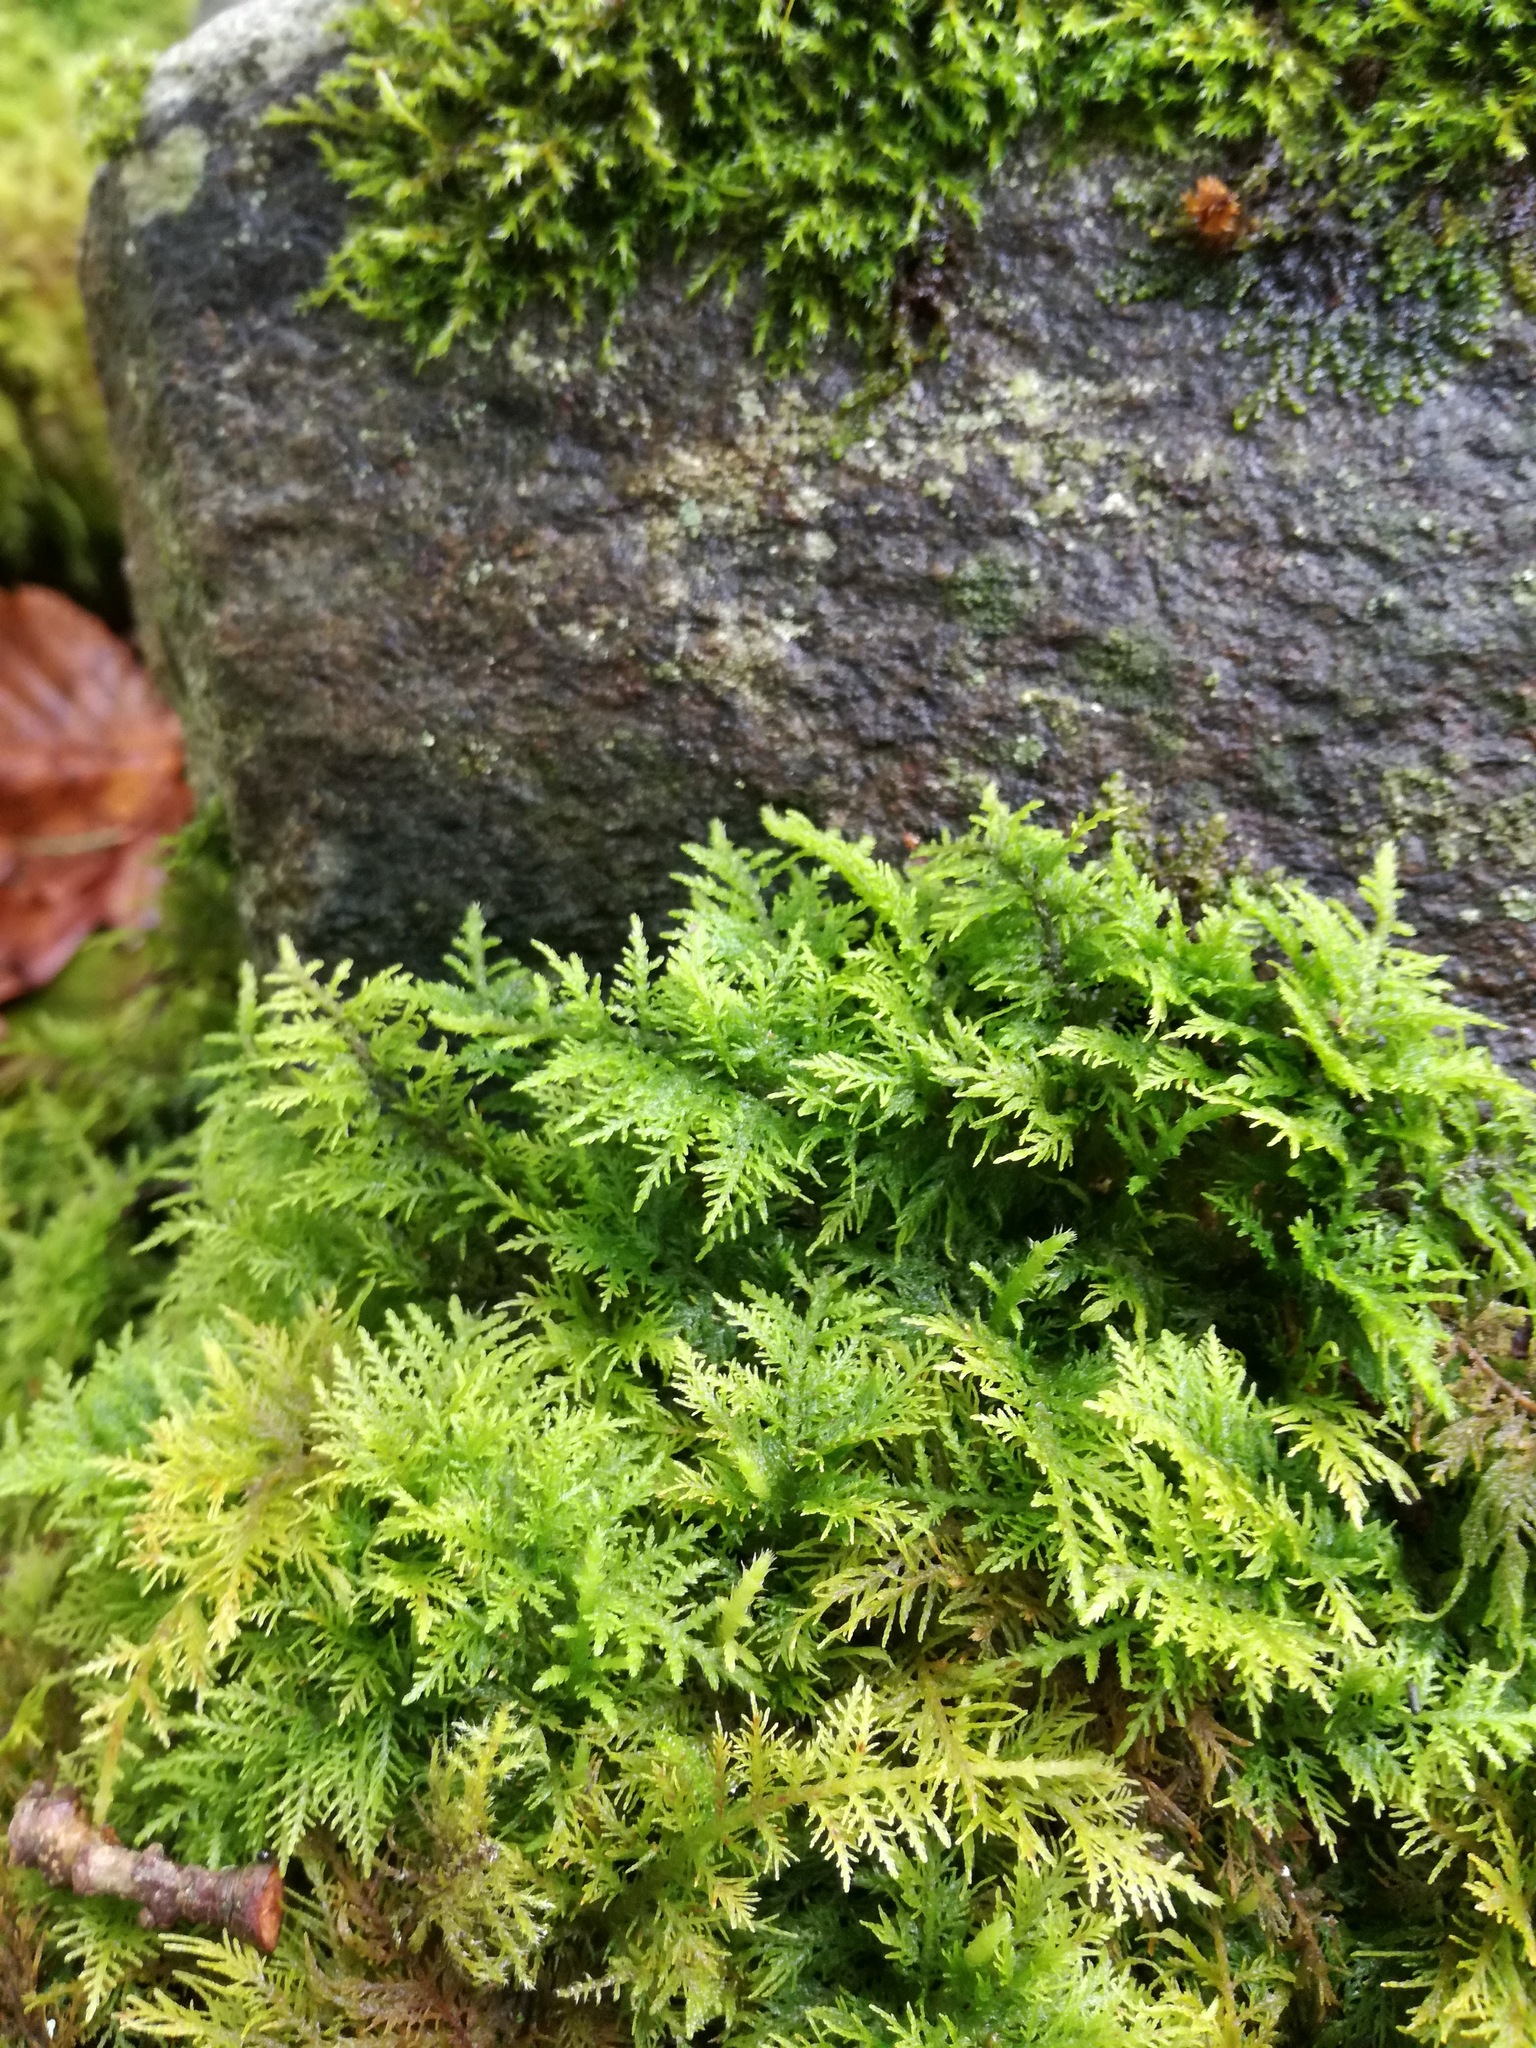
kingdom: Plantae
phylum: Bryophyta
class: Bryopsida
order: Hypnales
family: Thuidiaceae
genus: Thuidium
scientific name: Thuidium tamariscinum
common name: Common tamarisk-moss
